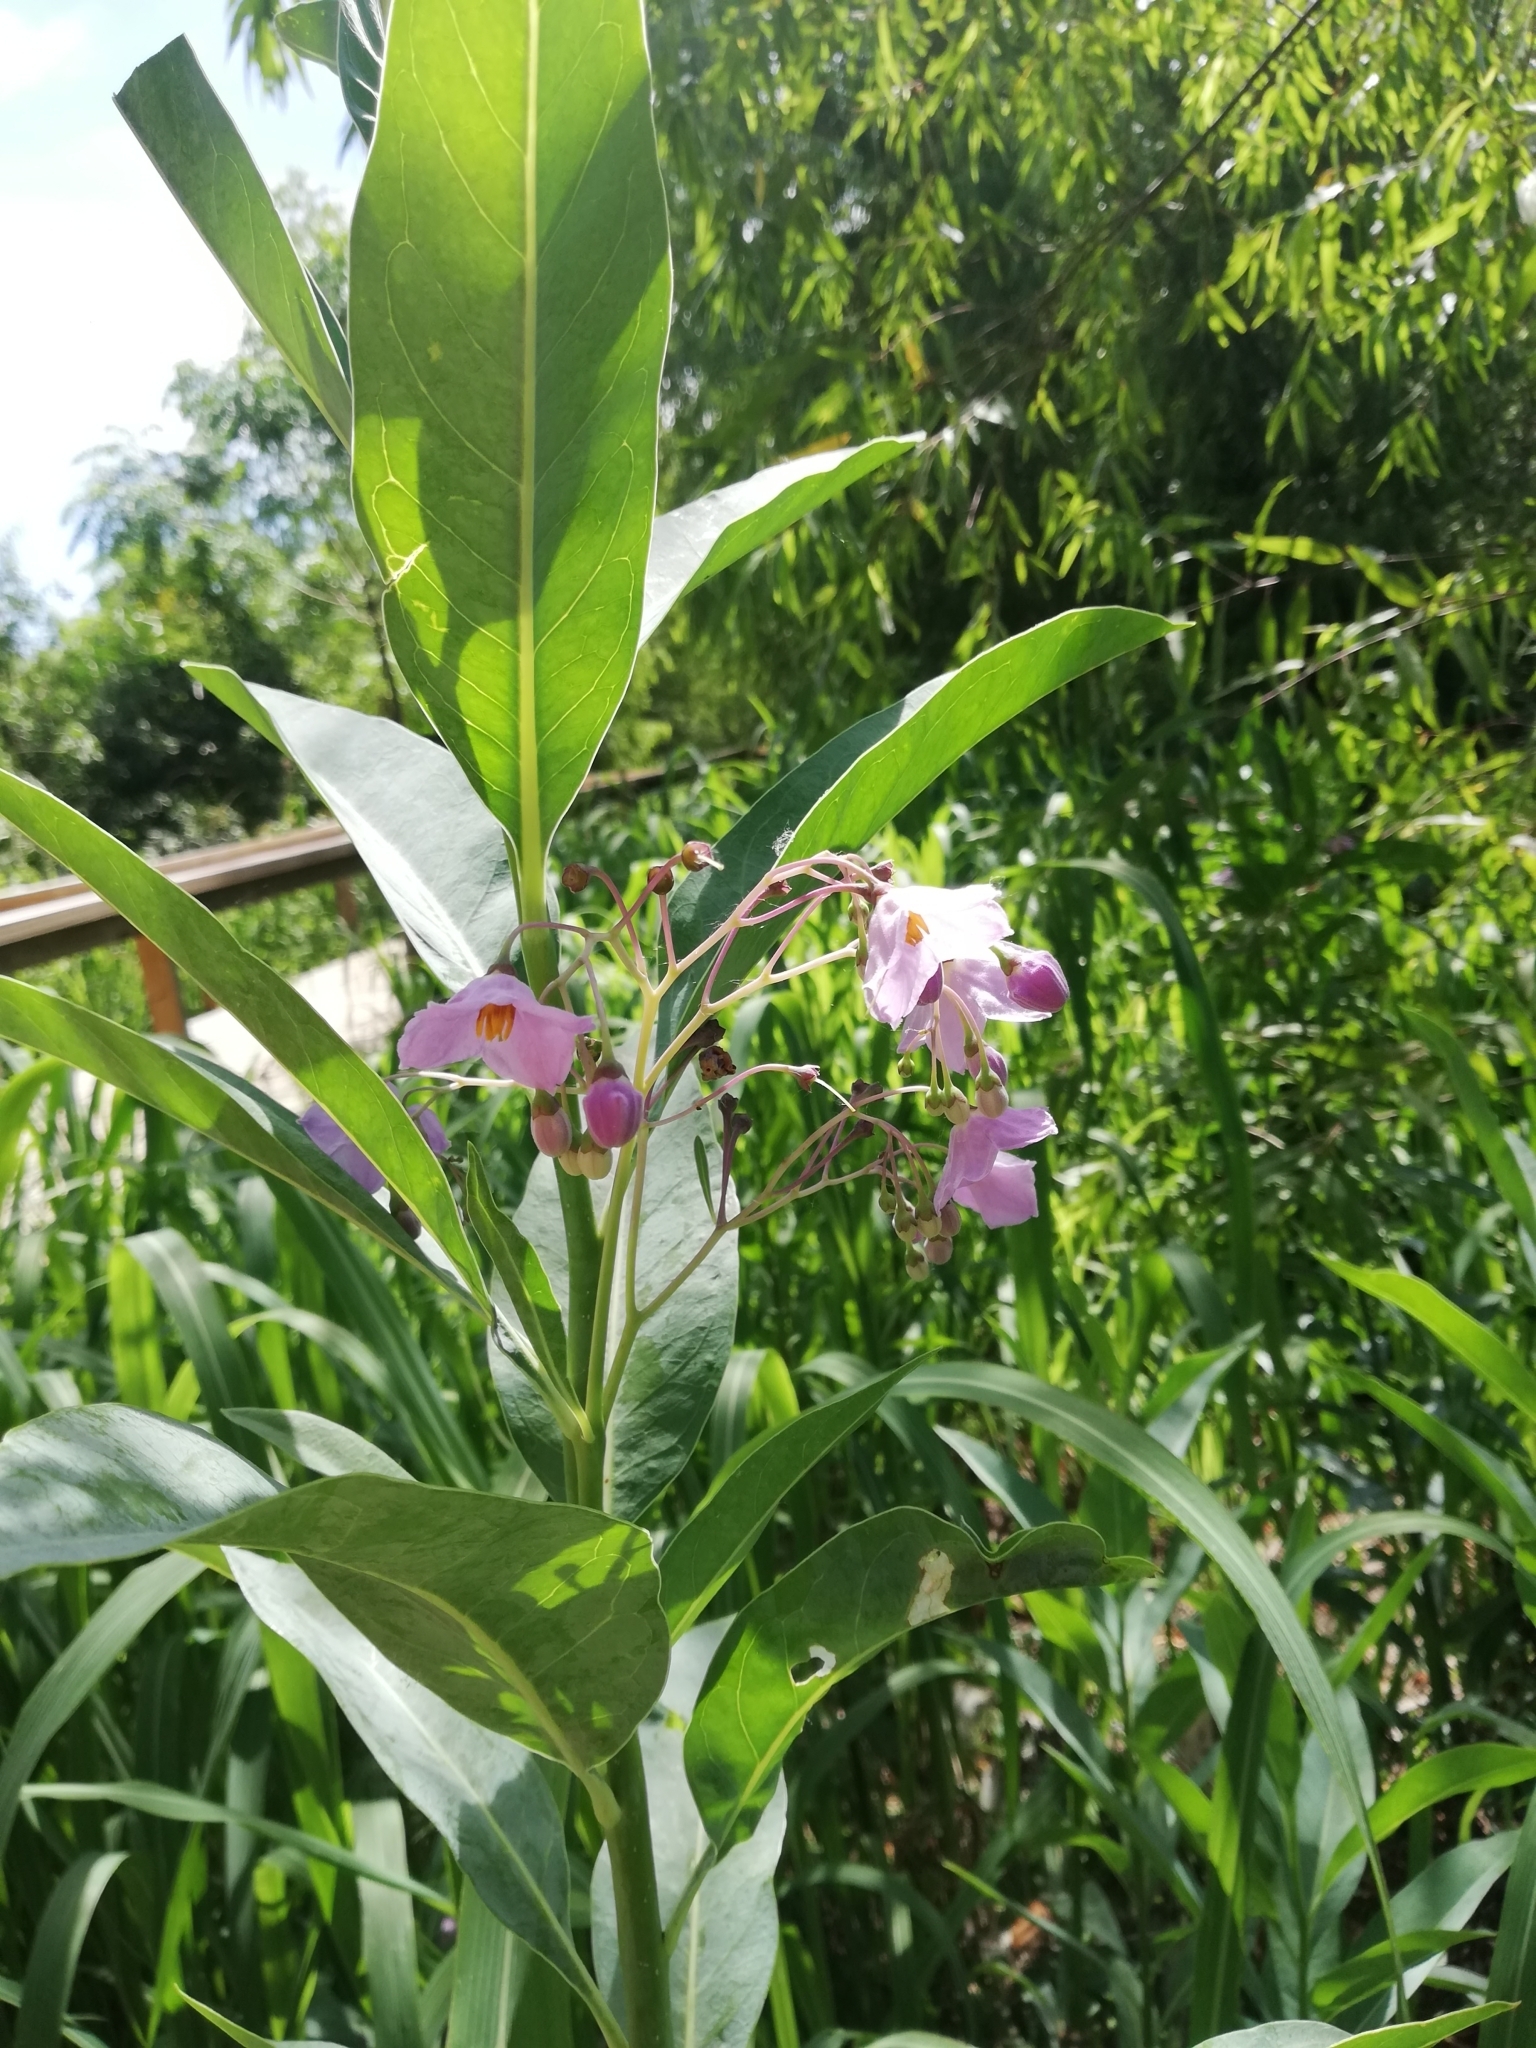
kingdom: Plantae
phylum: Tracheophyta
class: Magnoliopsida
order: Solanales
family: Solanaceae
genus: Solanum
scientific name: Solanum glaucophyllum
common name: Waxyleaf nightshade
